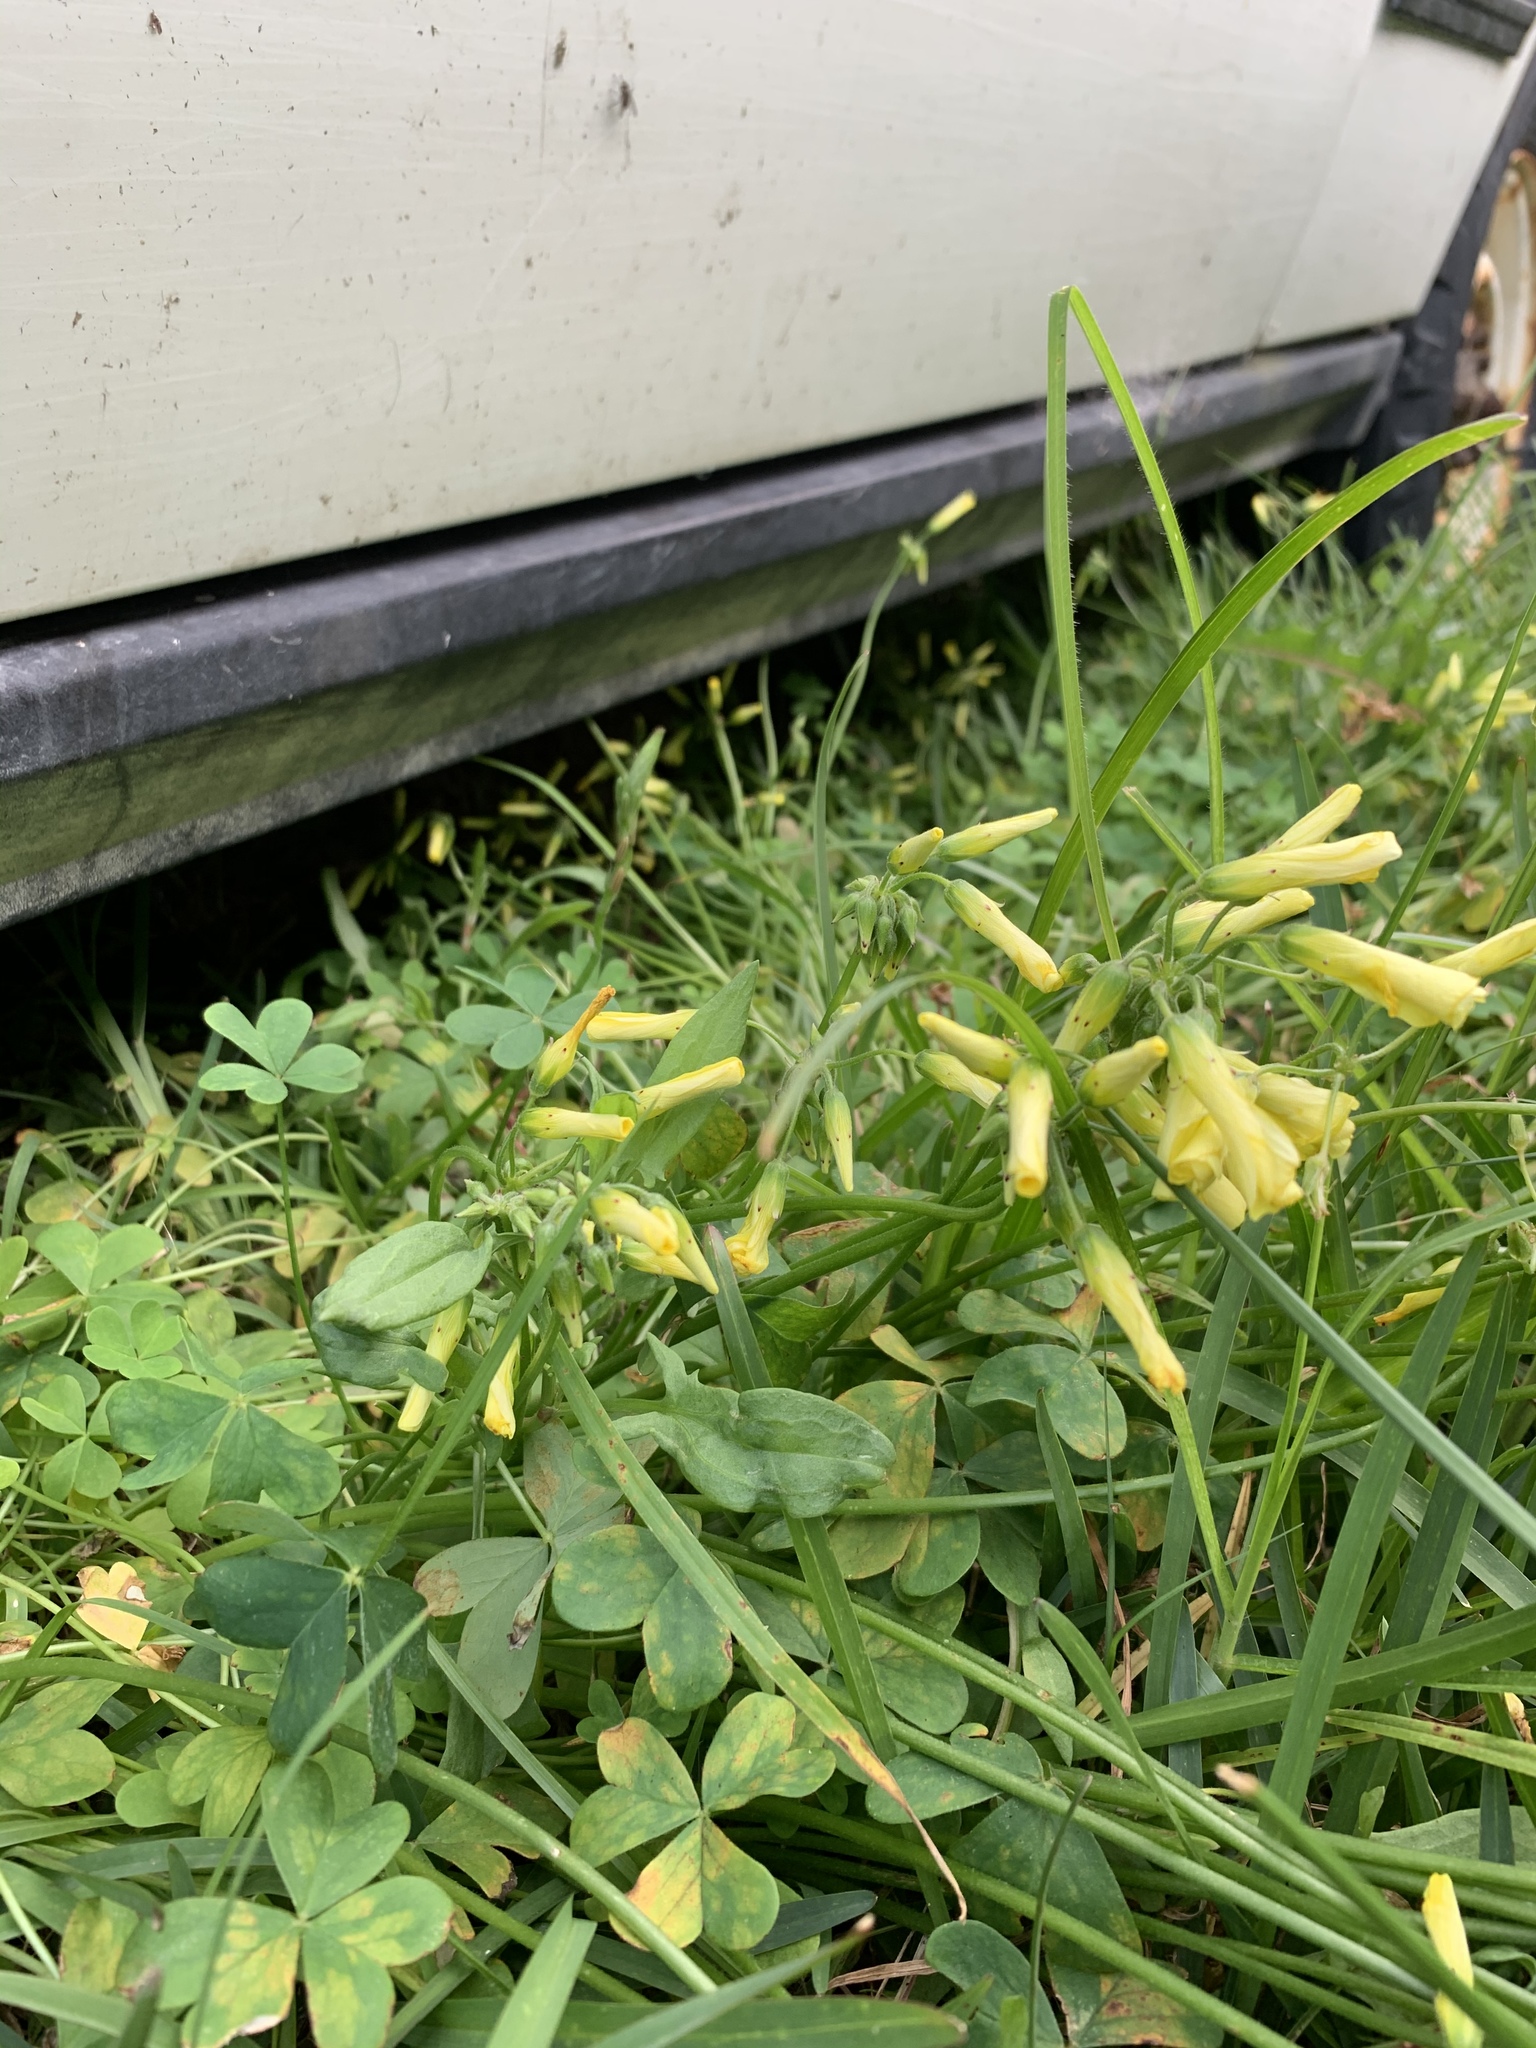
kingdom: Plantae
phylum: Tracheophyta
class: Magnoliopsida
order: Oxalidales
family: Oxalidaceae
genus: Oxalis
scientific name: Oxalis pes-caprae
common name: Bermuda-buttercup
